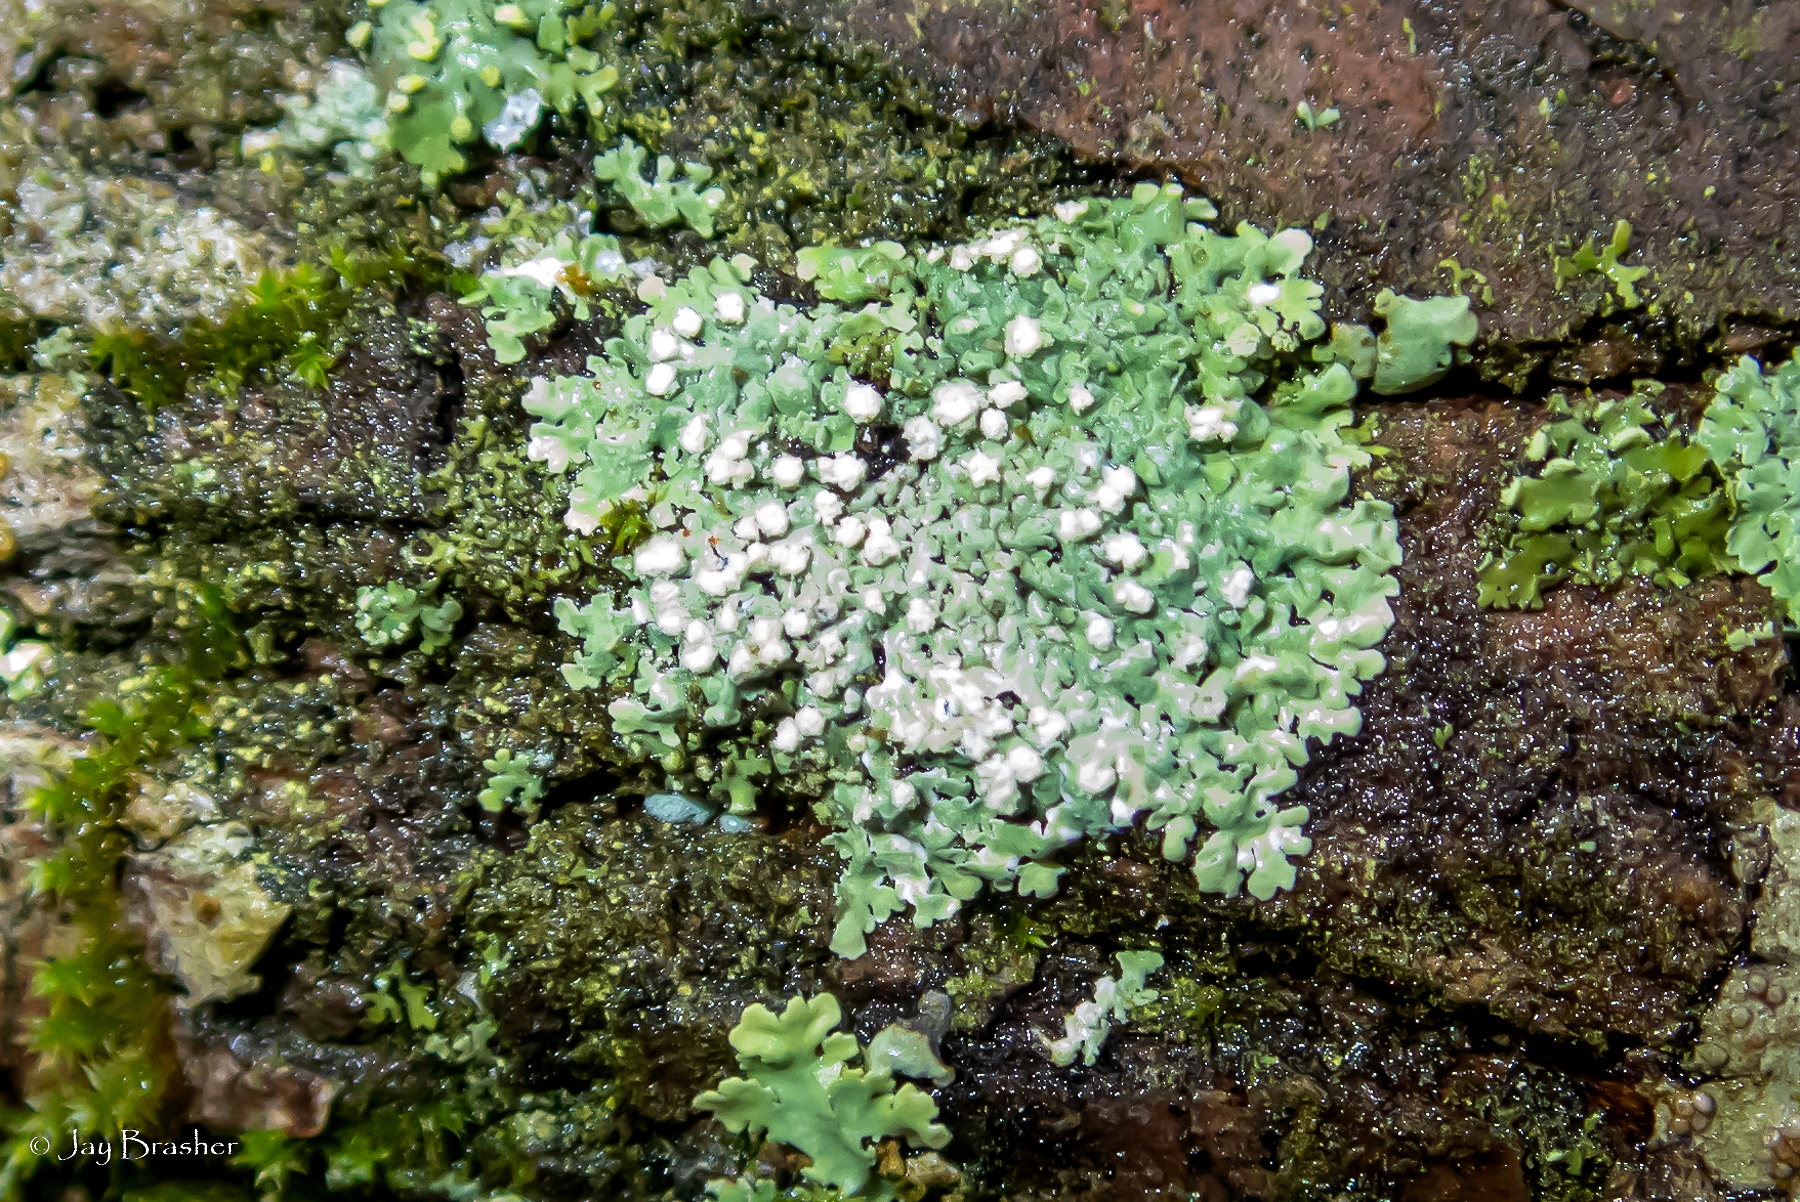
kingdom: Fungi
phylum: Ascomycota
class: Lecanoromycetes
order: Caliciales
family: Caliciaceae
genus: Pyxine
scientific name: Pyxine subcinerea
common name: Mustard lichen
